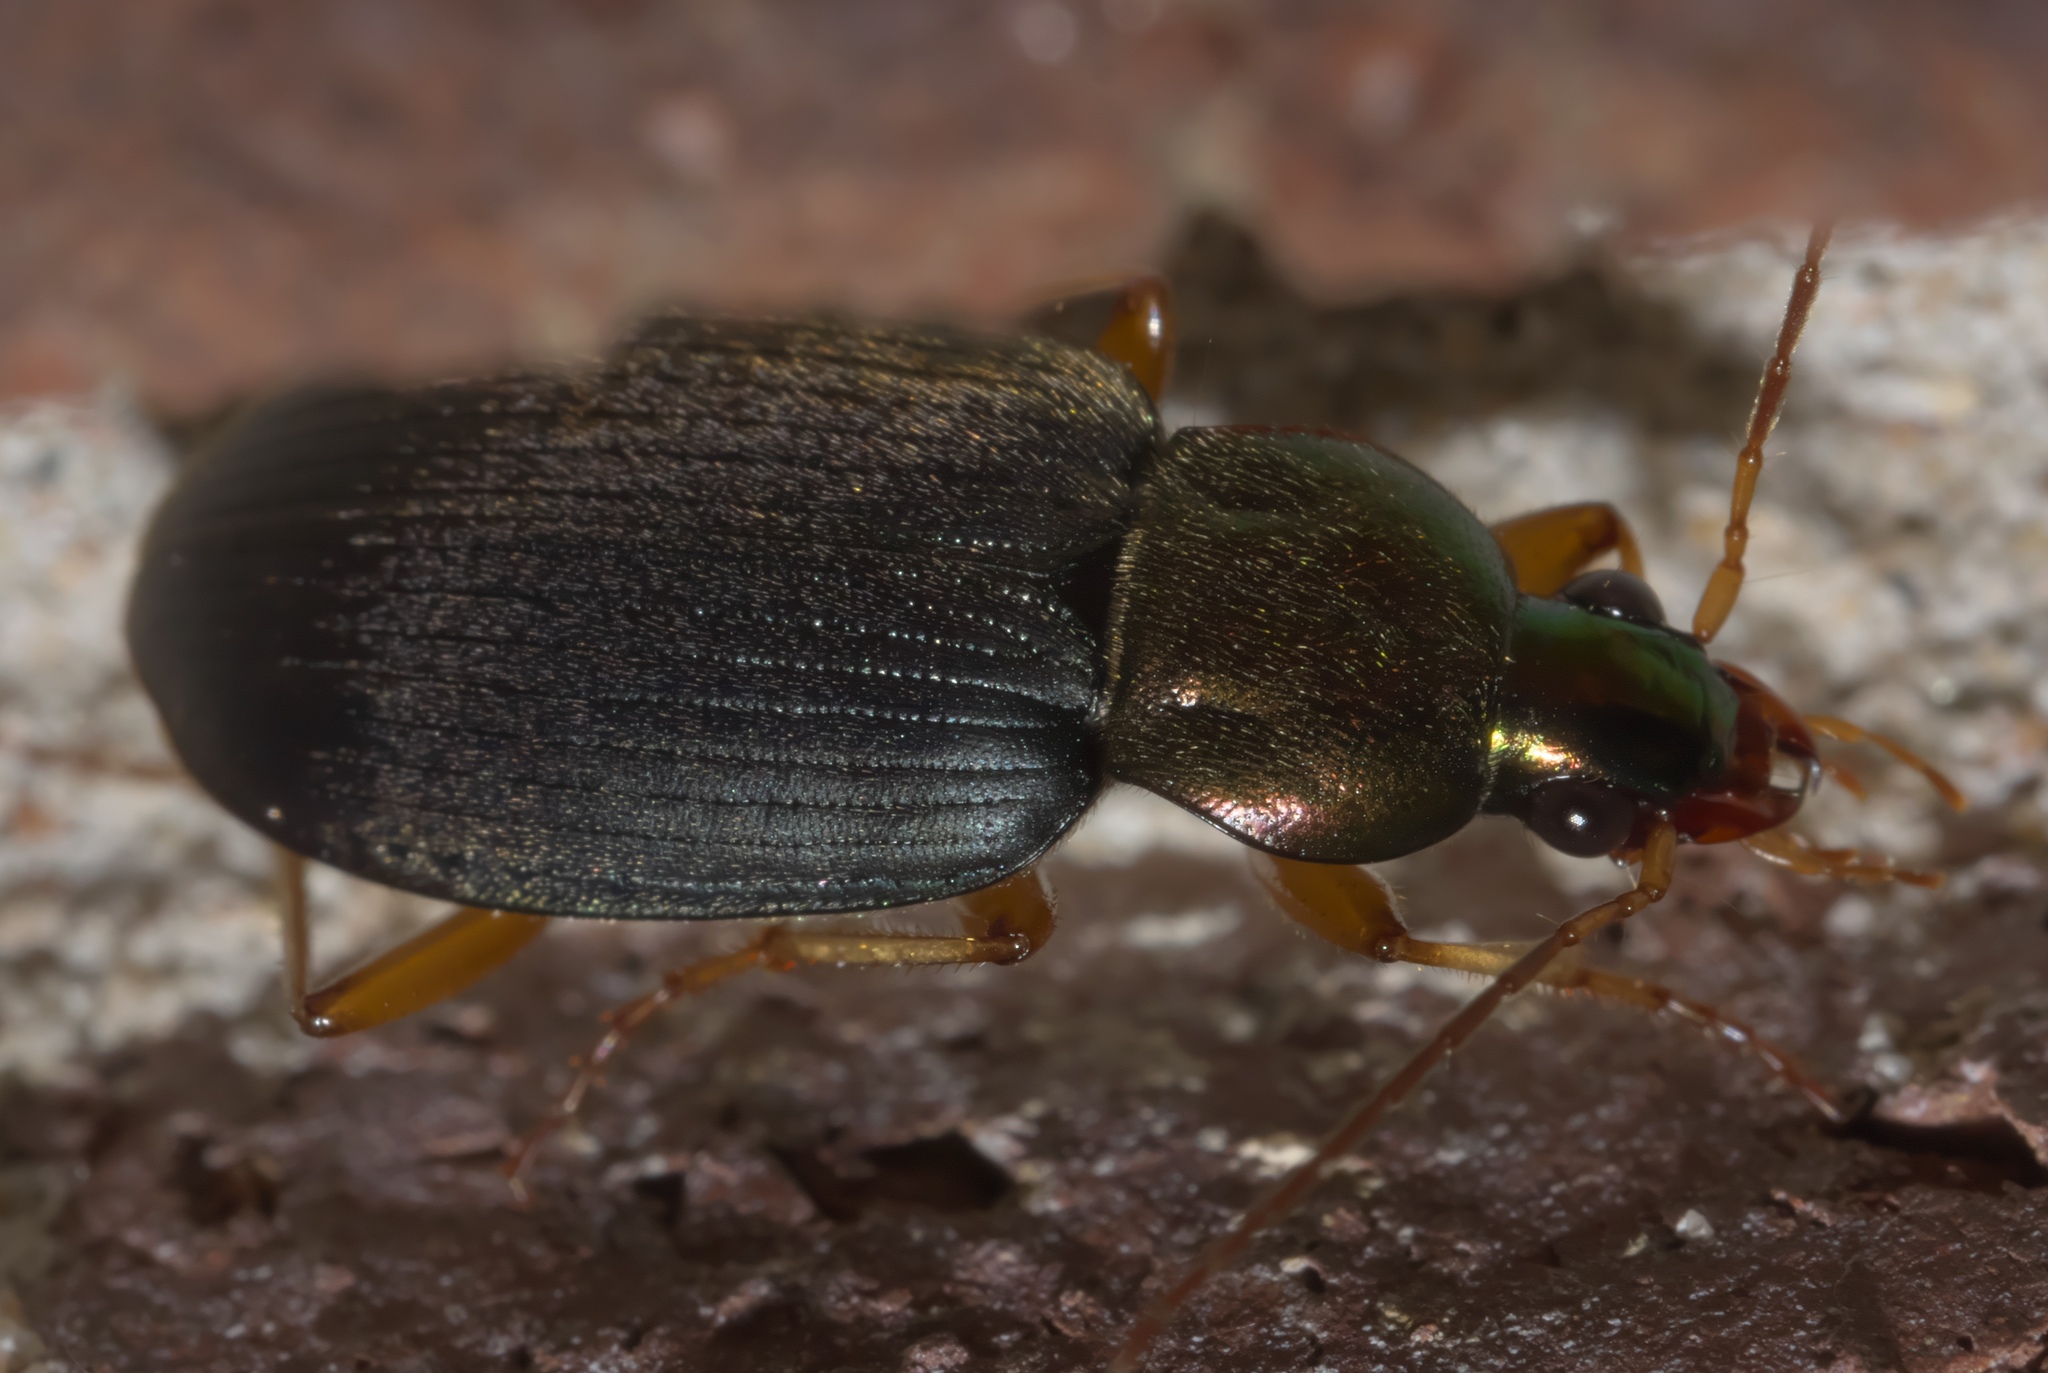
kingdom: Animalia
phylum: Arthropoda
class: Insecta
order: Coleoptera
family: Carabidae
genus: Chlaenius
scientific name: Chlaenius tricolor
